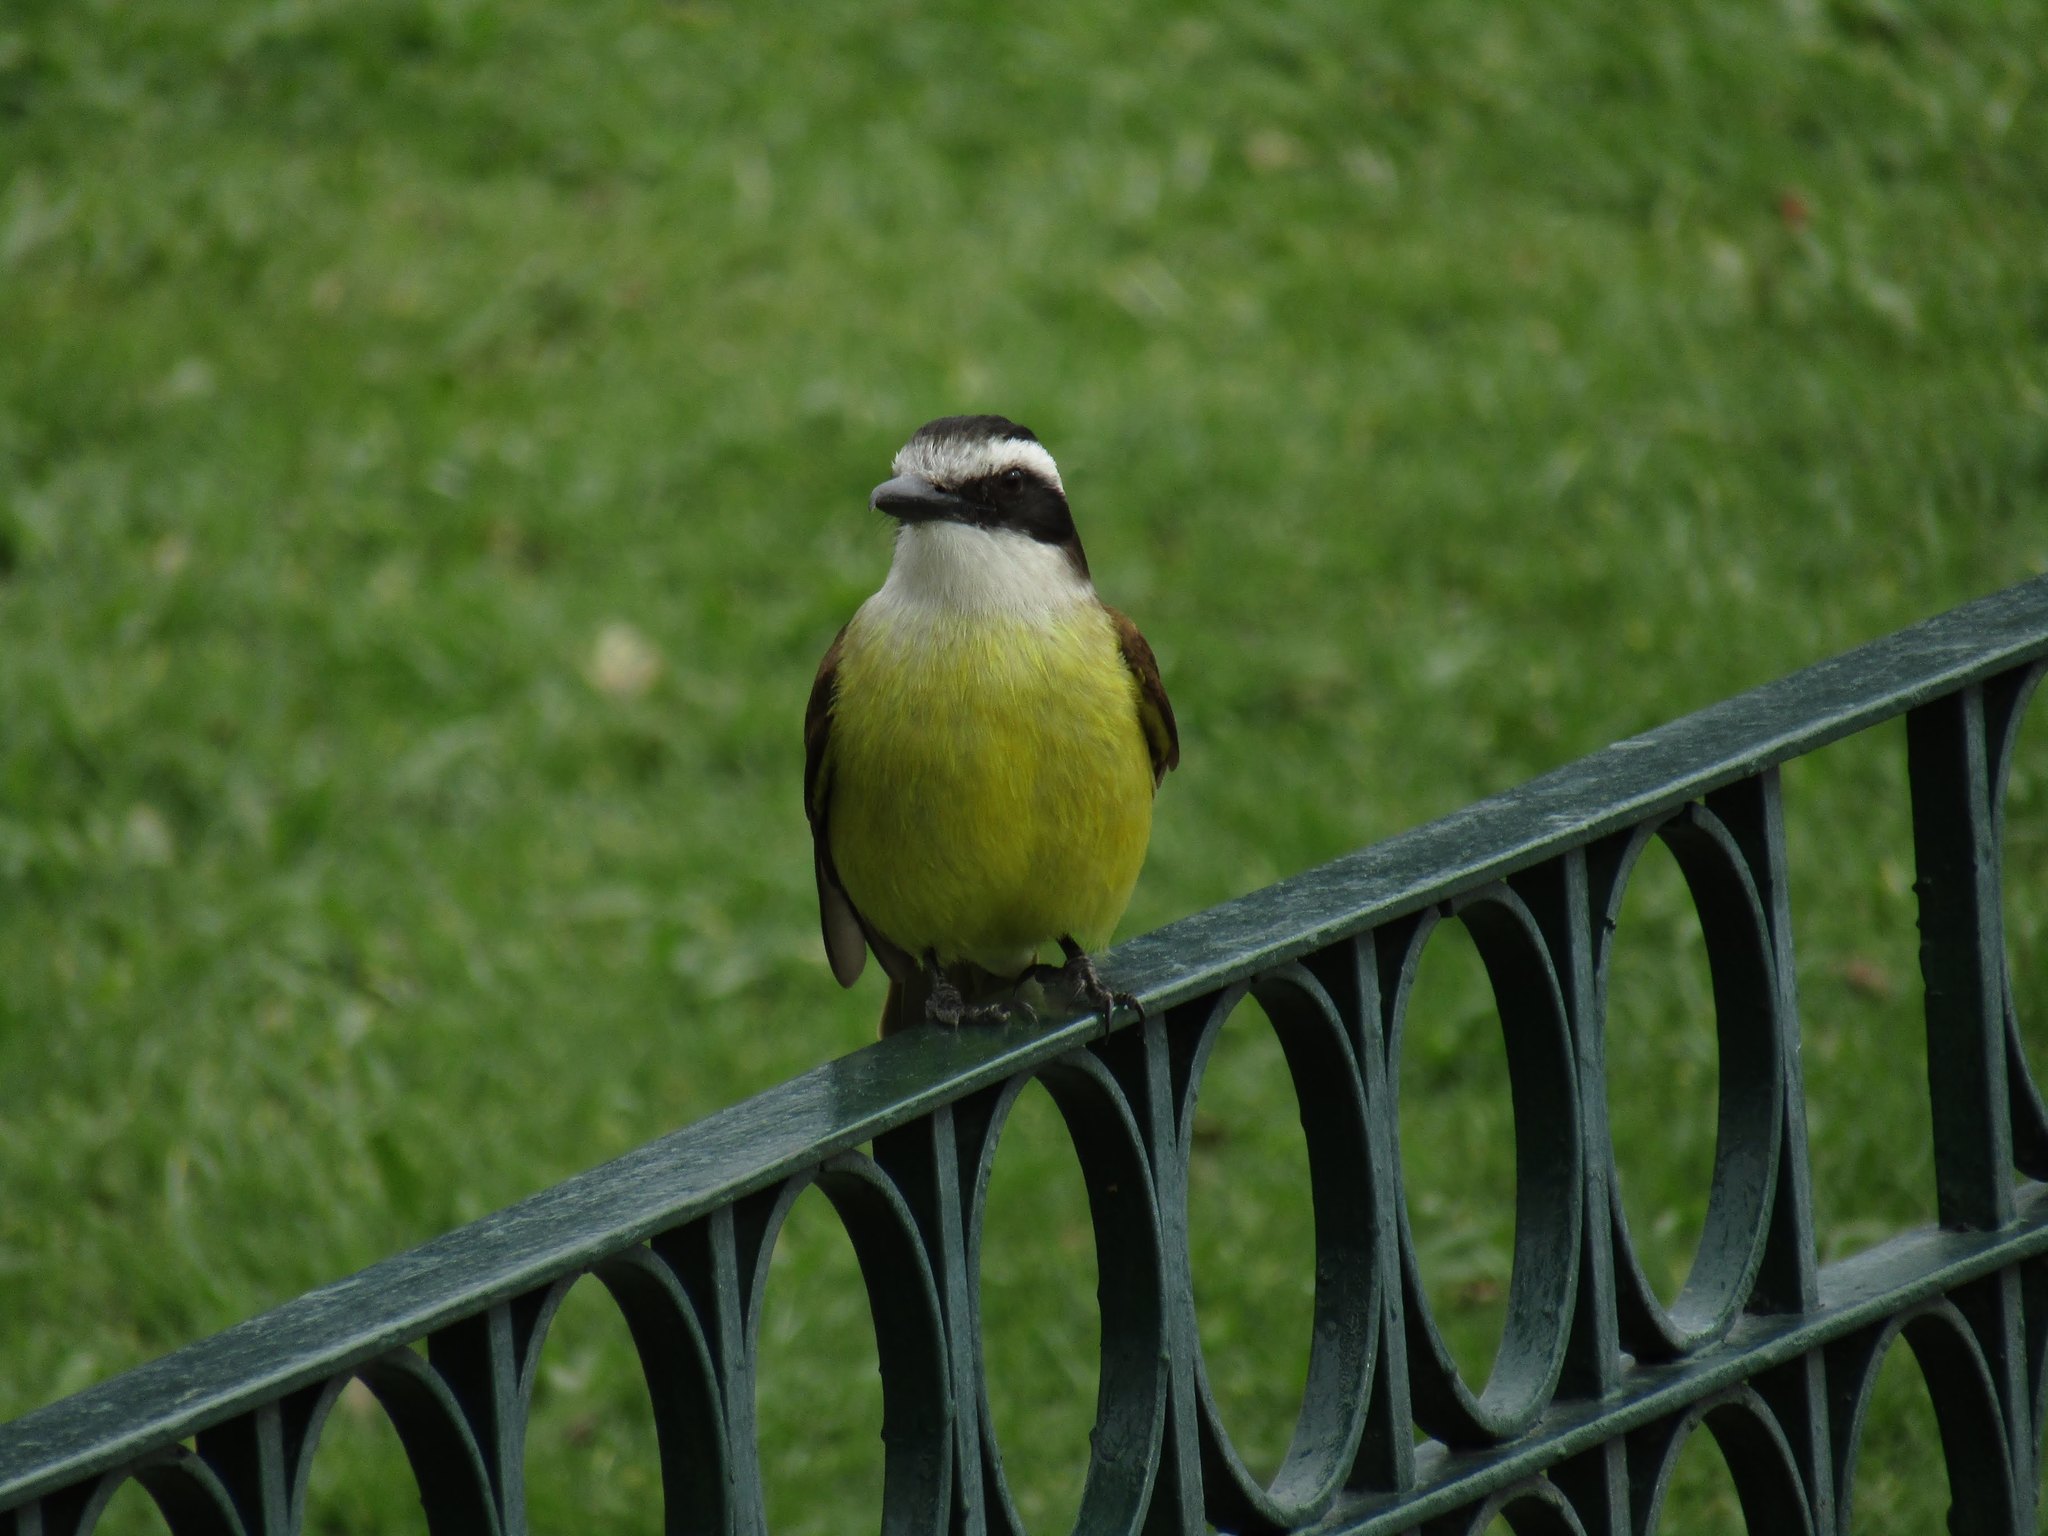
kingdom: Animalia
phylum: Chordata
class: Aves
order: Passeriformes
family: Tyrannidae
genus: Pitangus
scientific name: Pitangus sulphuratus
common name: Great kiskadee
